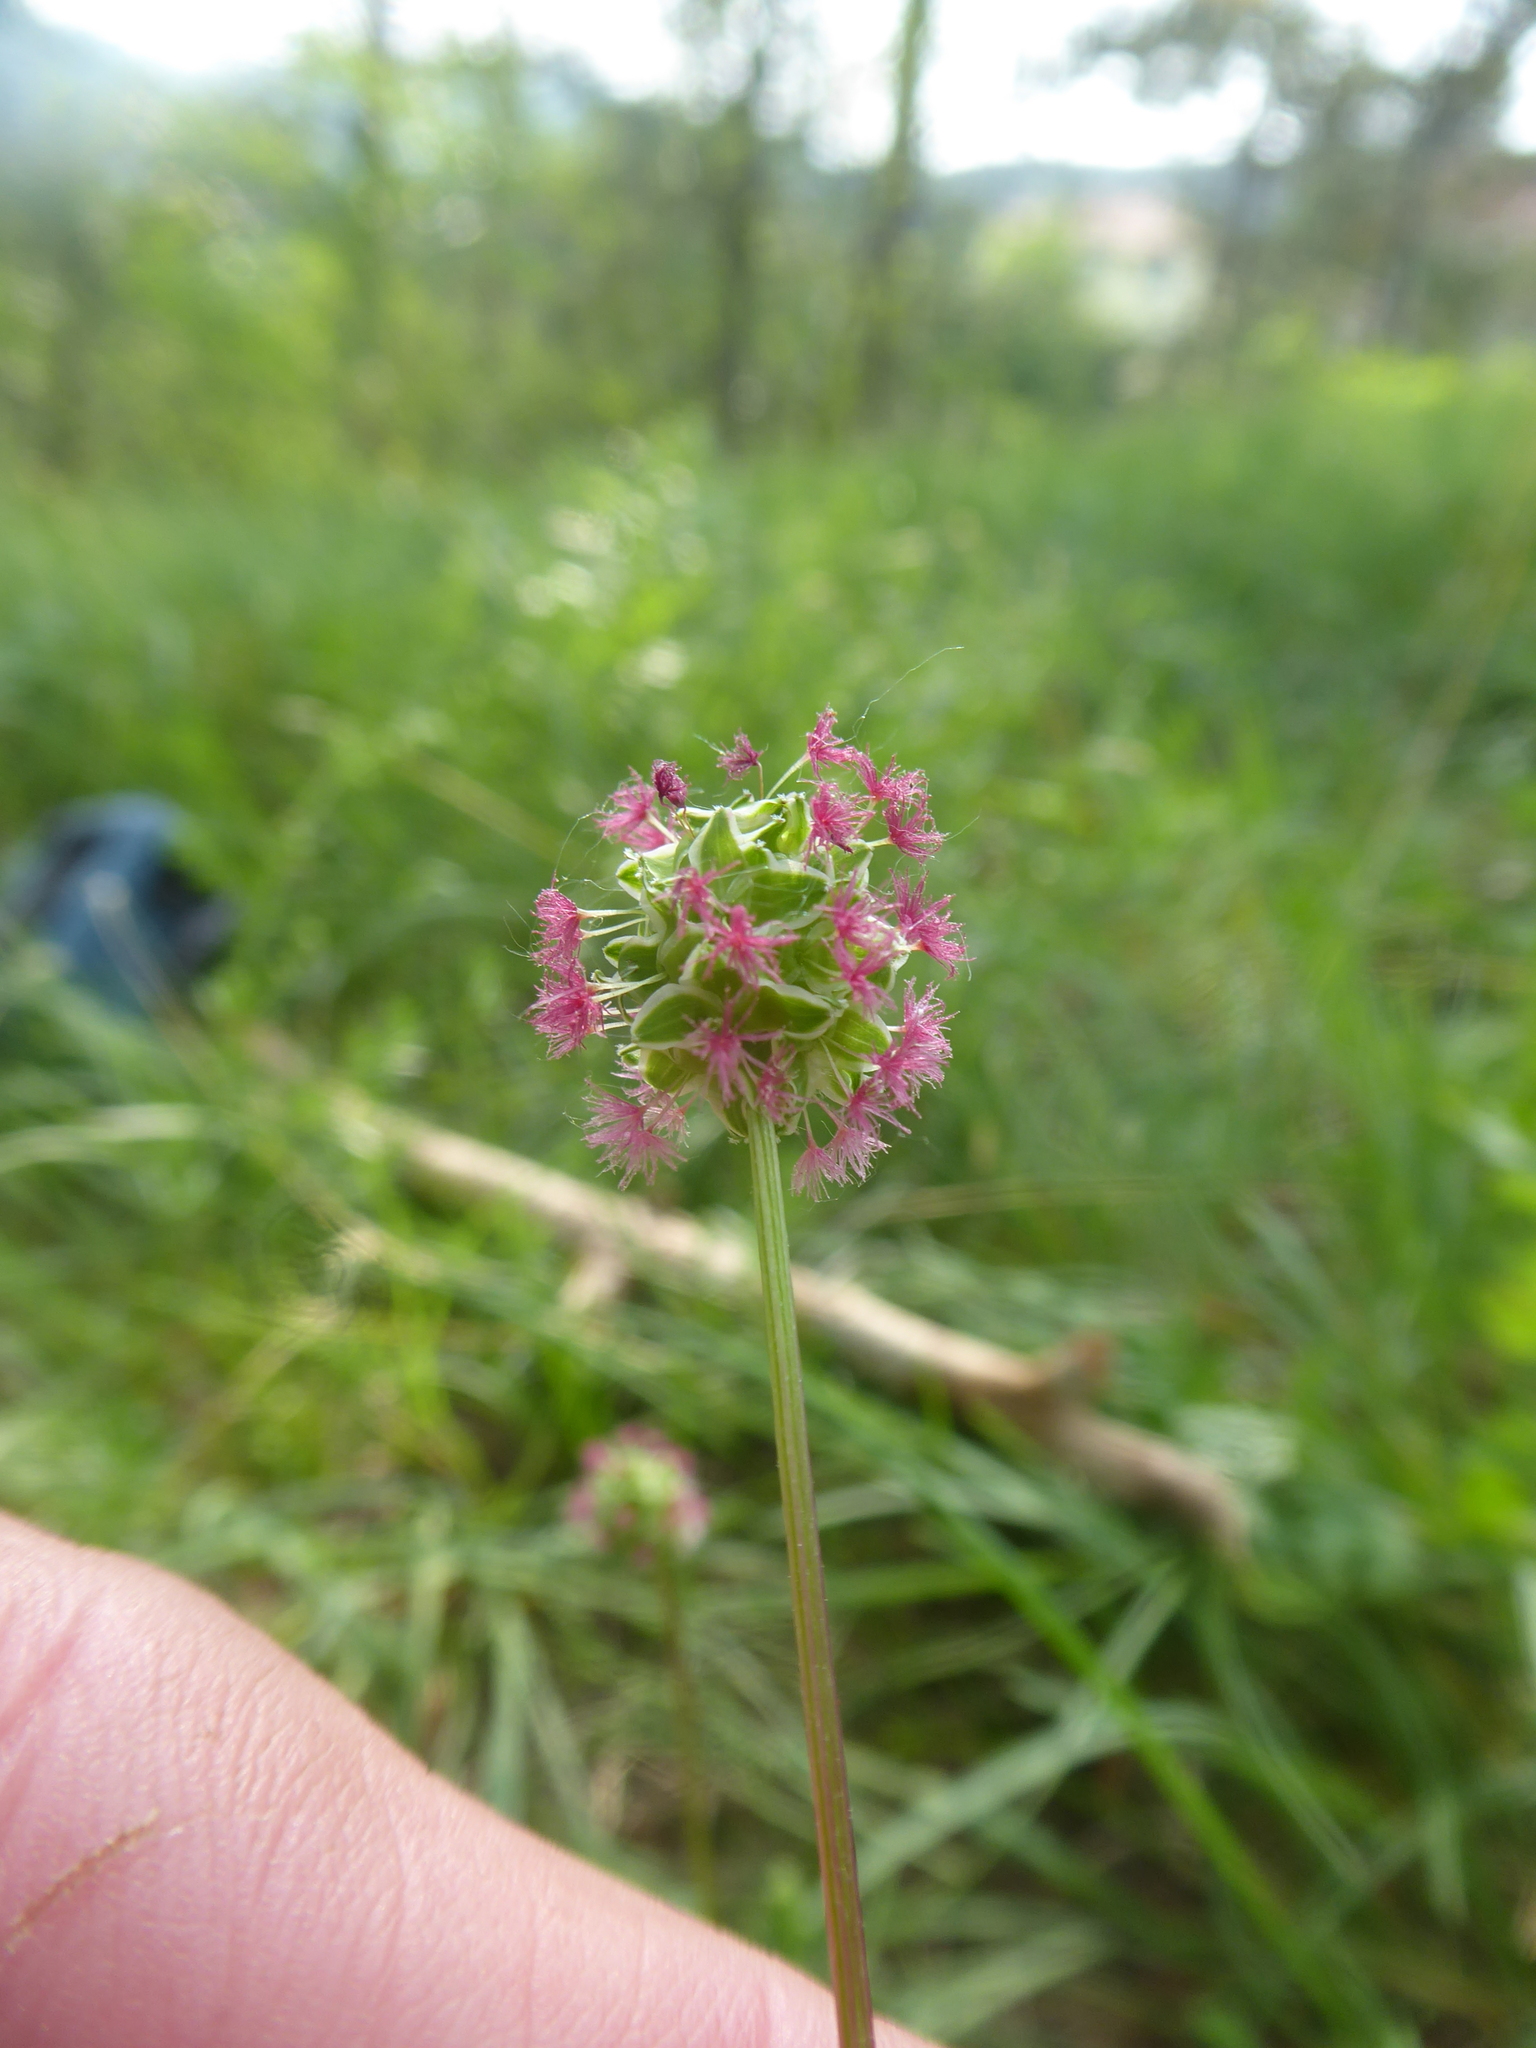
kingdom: Plantae
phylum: Tracheophyta
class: Magnoliopsida
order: Rosales
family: Rosaceae
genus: Poterium
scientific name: Poterium sanguisorba
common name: Salad burnet
